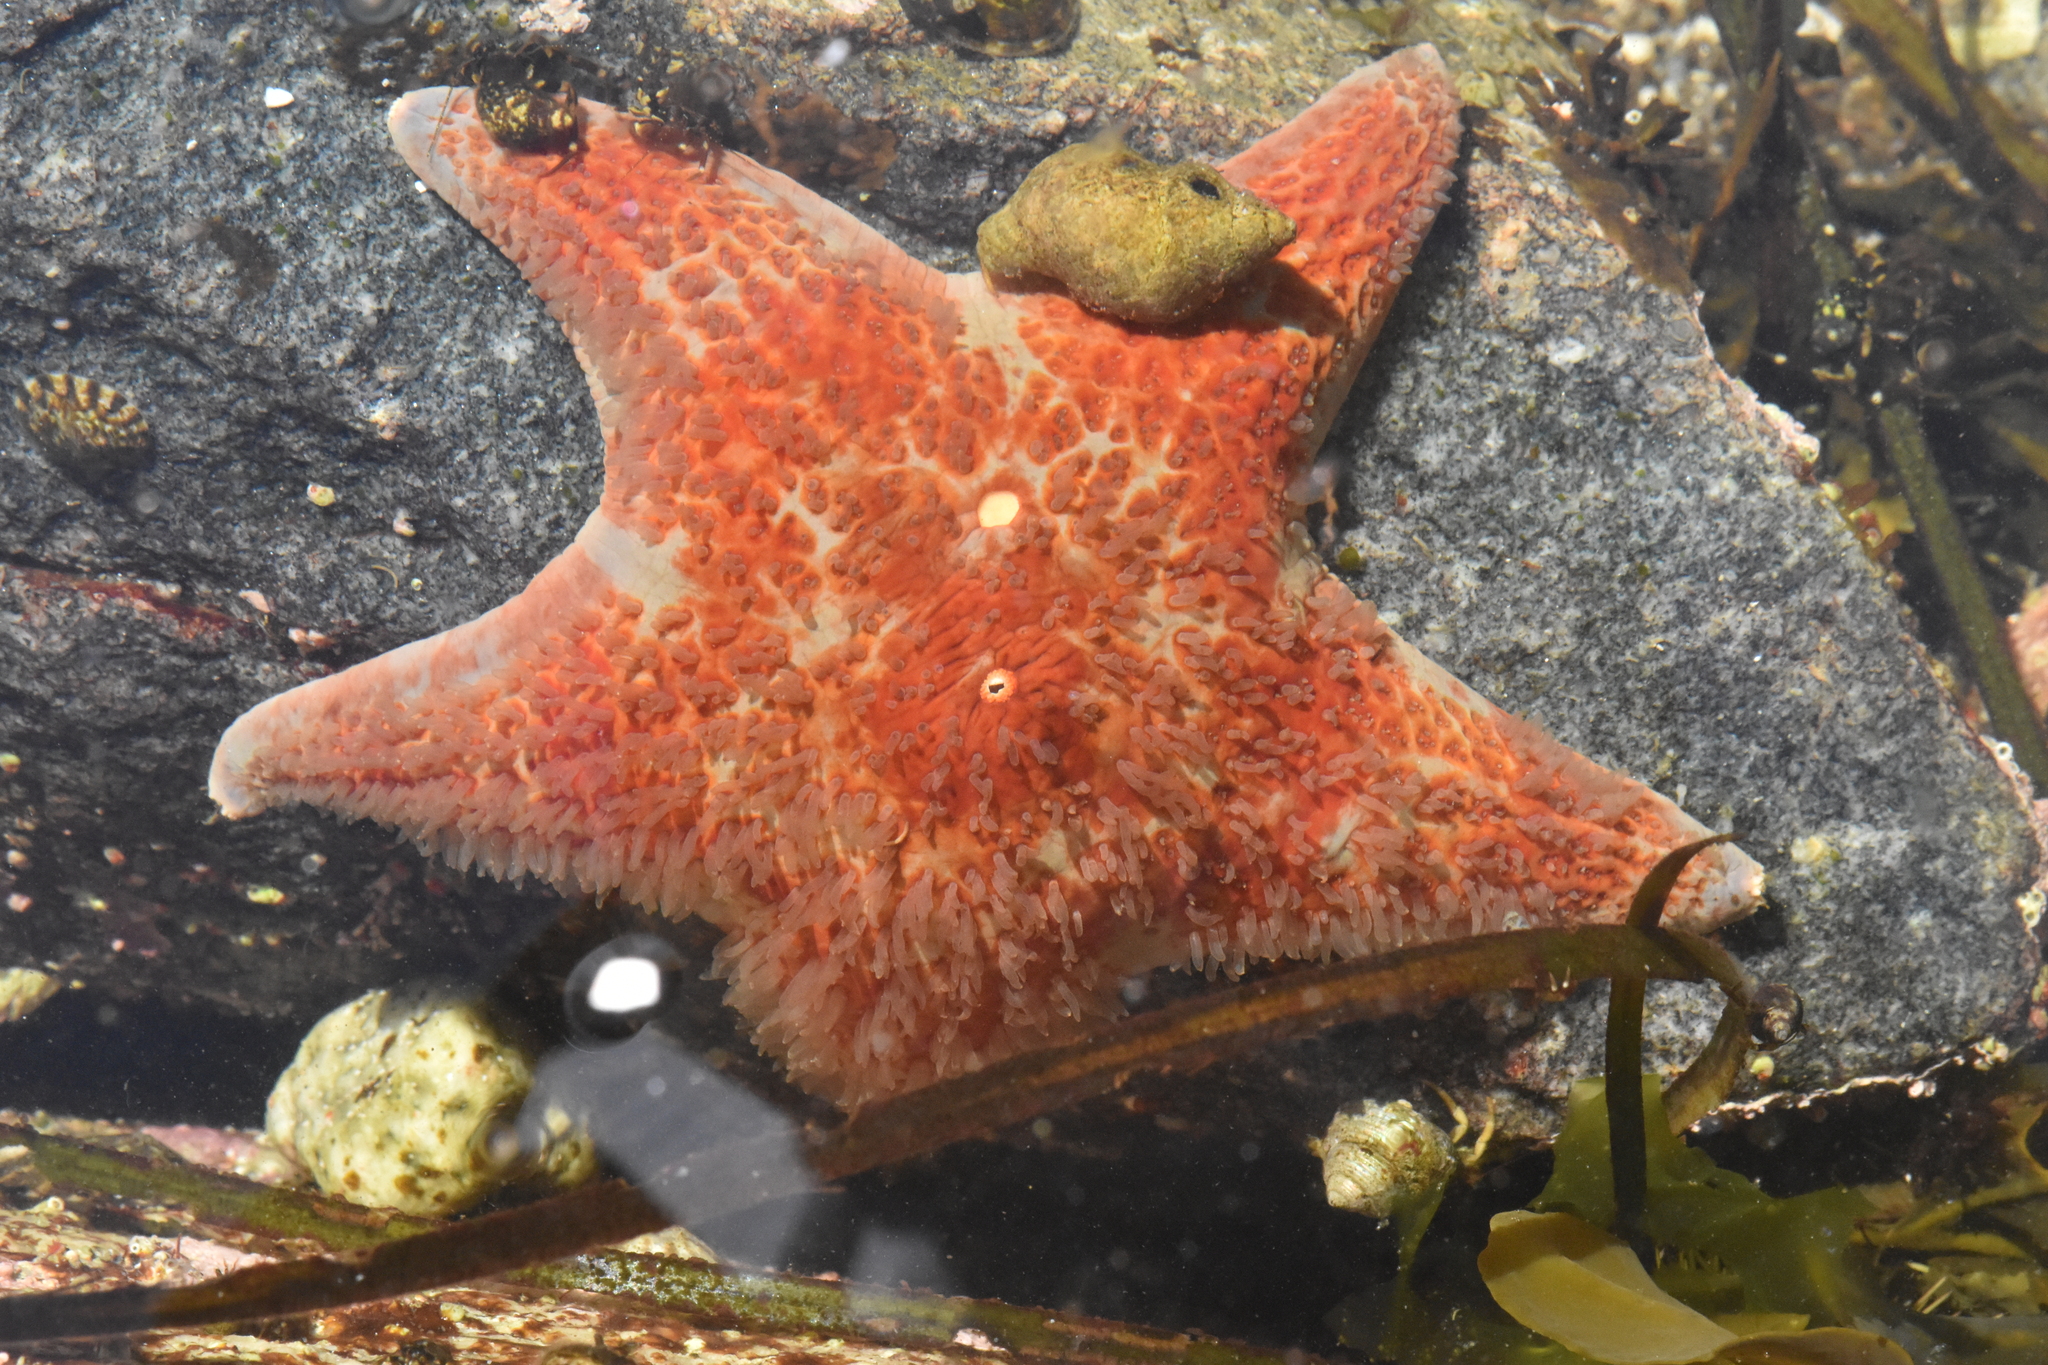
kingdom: Animalia
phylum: Echinodermata
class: Asteroidea
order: Valvatida
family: Asteropseidae
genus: Dermasterias
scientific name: Dermasterias imbricata
